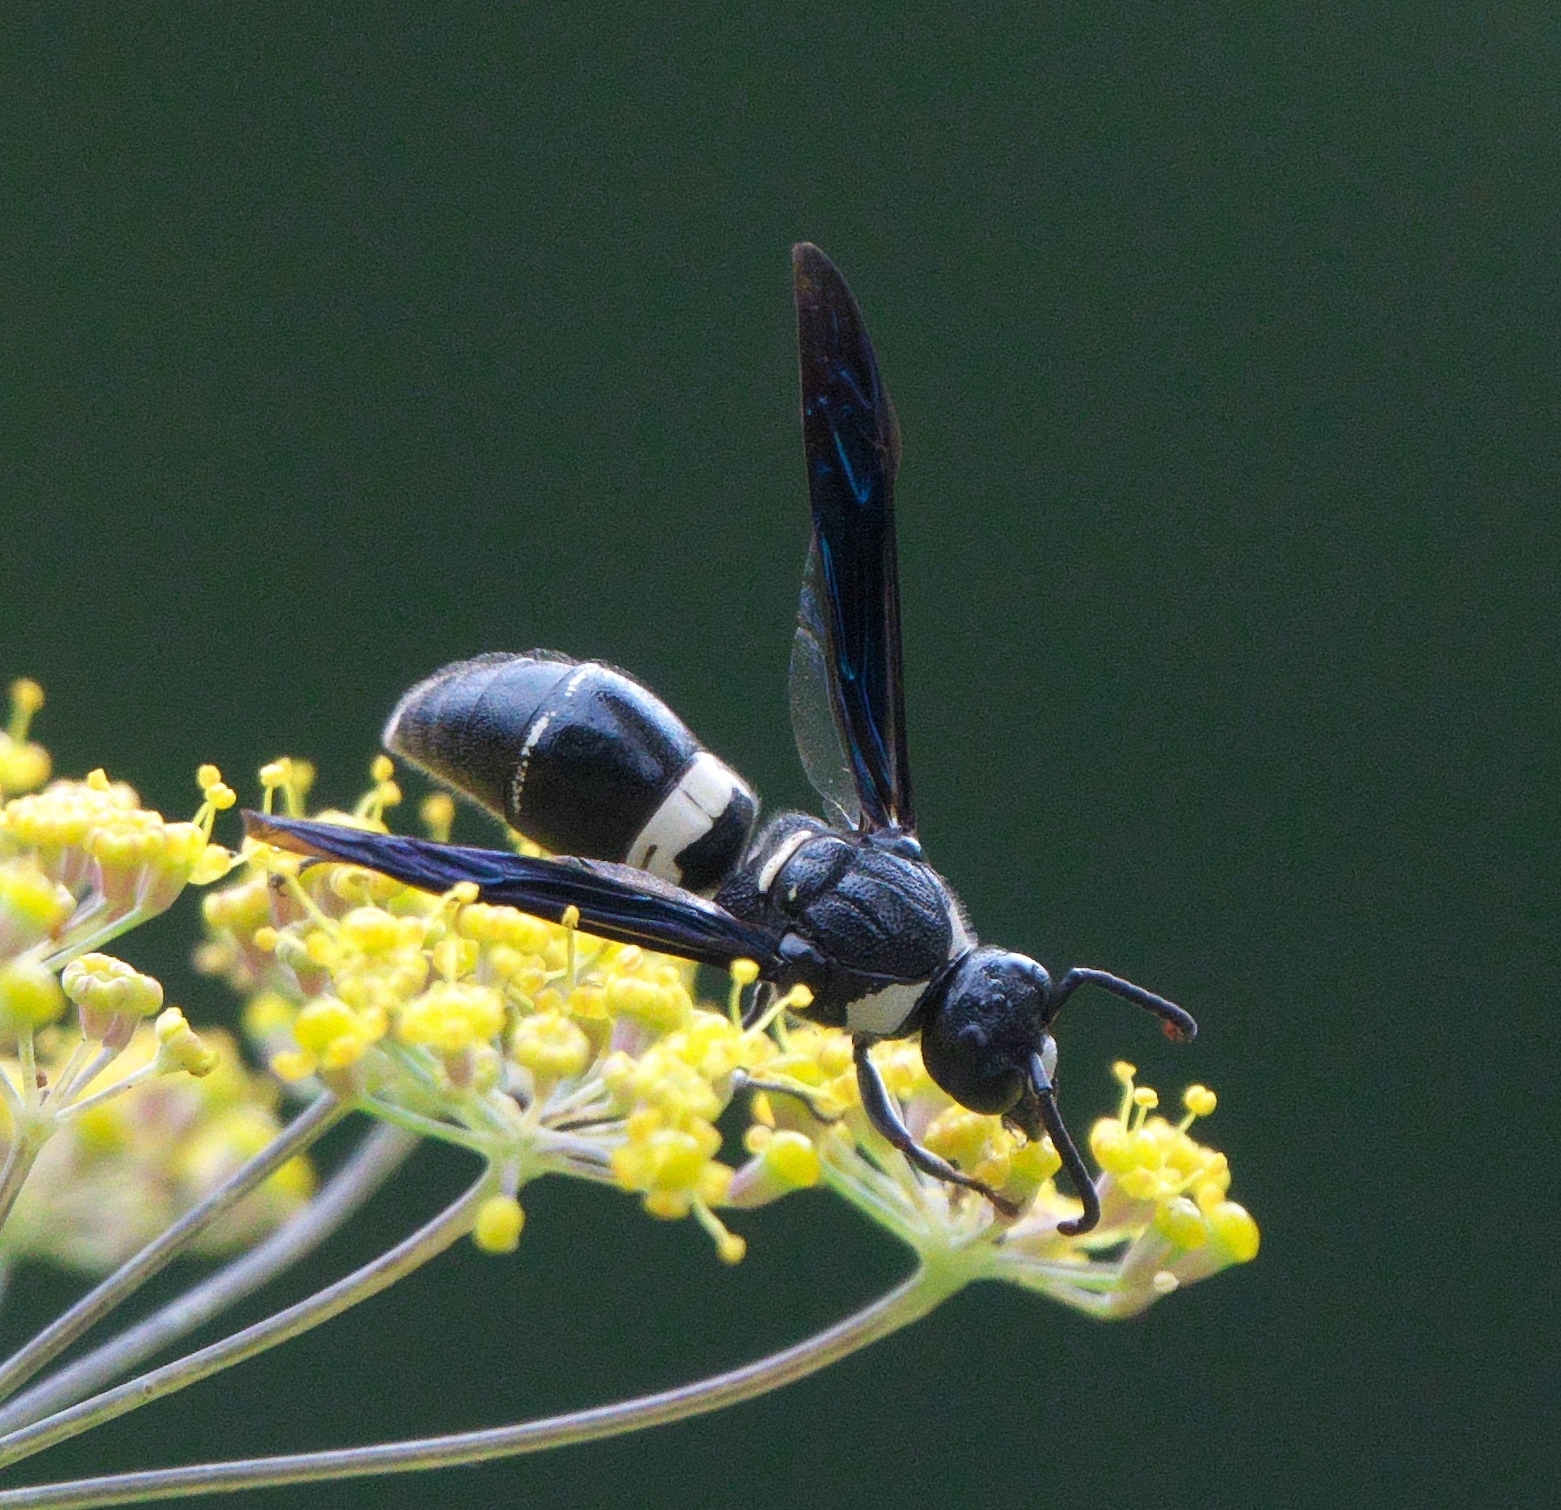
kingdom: Animalia
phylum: Arthropoda
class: Insecta
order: Hymenoptera
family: Eumenidae
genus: Monobia
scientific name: Monobia quadridens
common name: Four-toothed mason wasp
